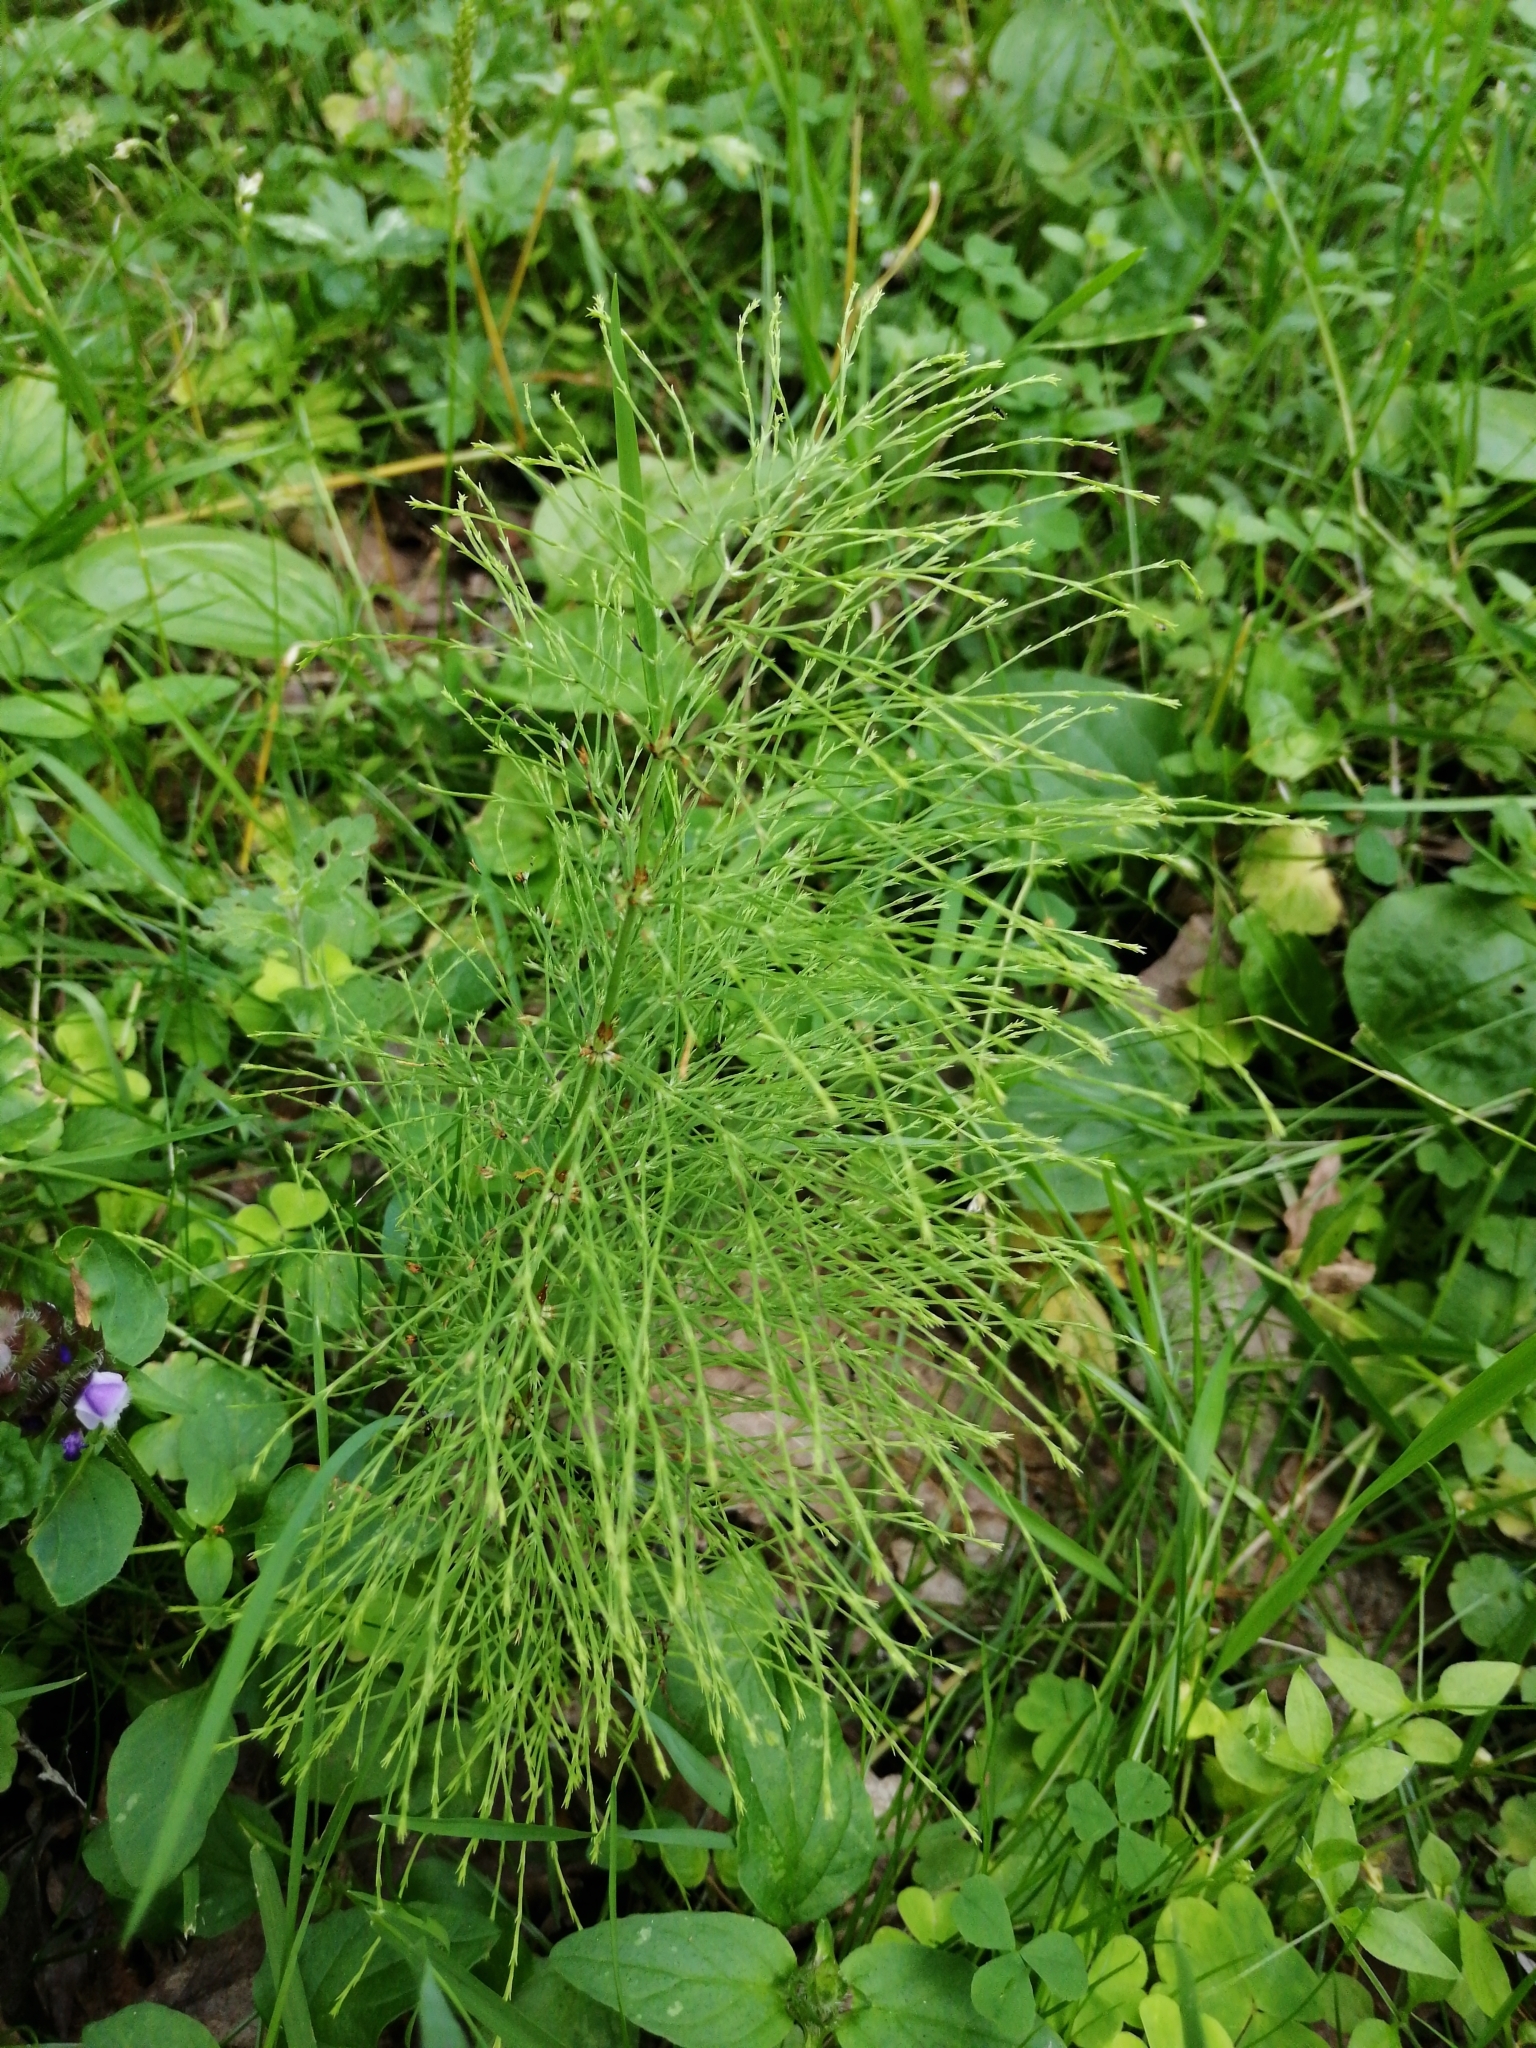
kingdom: Plantae
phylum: Tracheophyta
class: Polypodiopsida
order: Equisetales
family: Equisetaceae
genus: Equisetum
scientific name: Equisetum sylvaticum
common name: Wood horsetail
